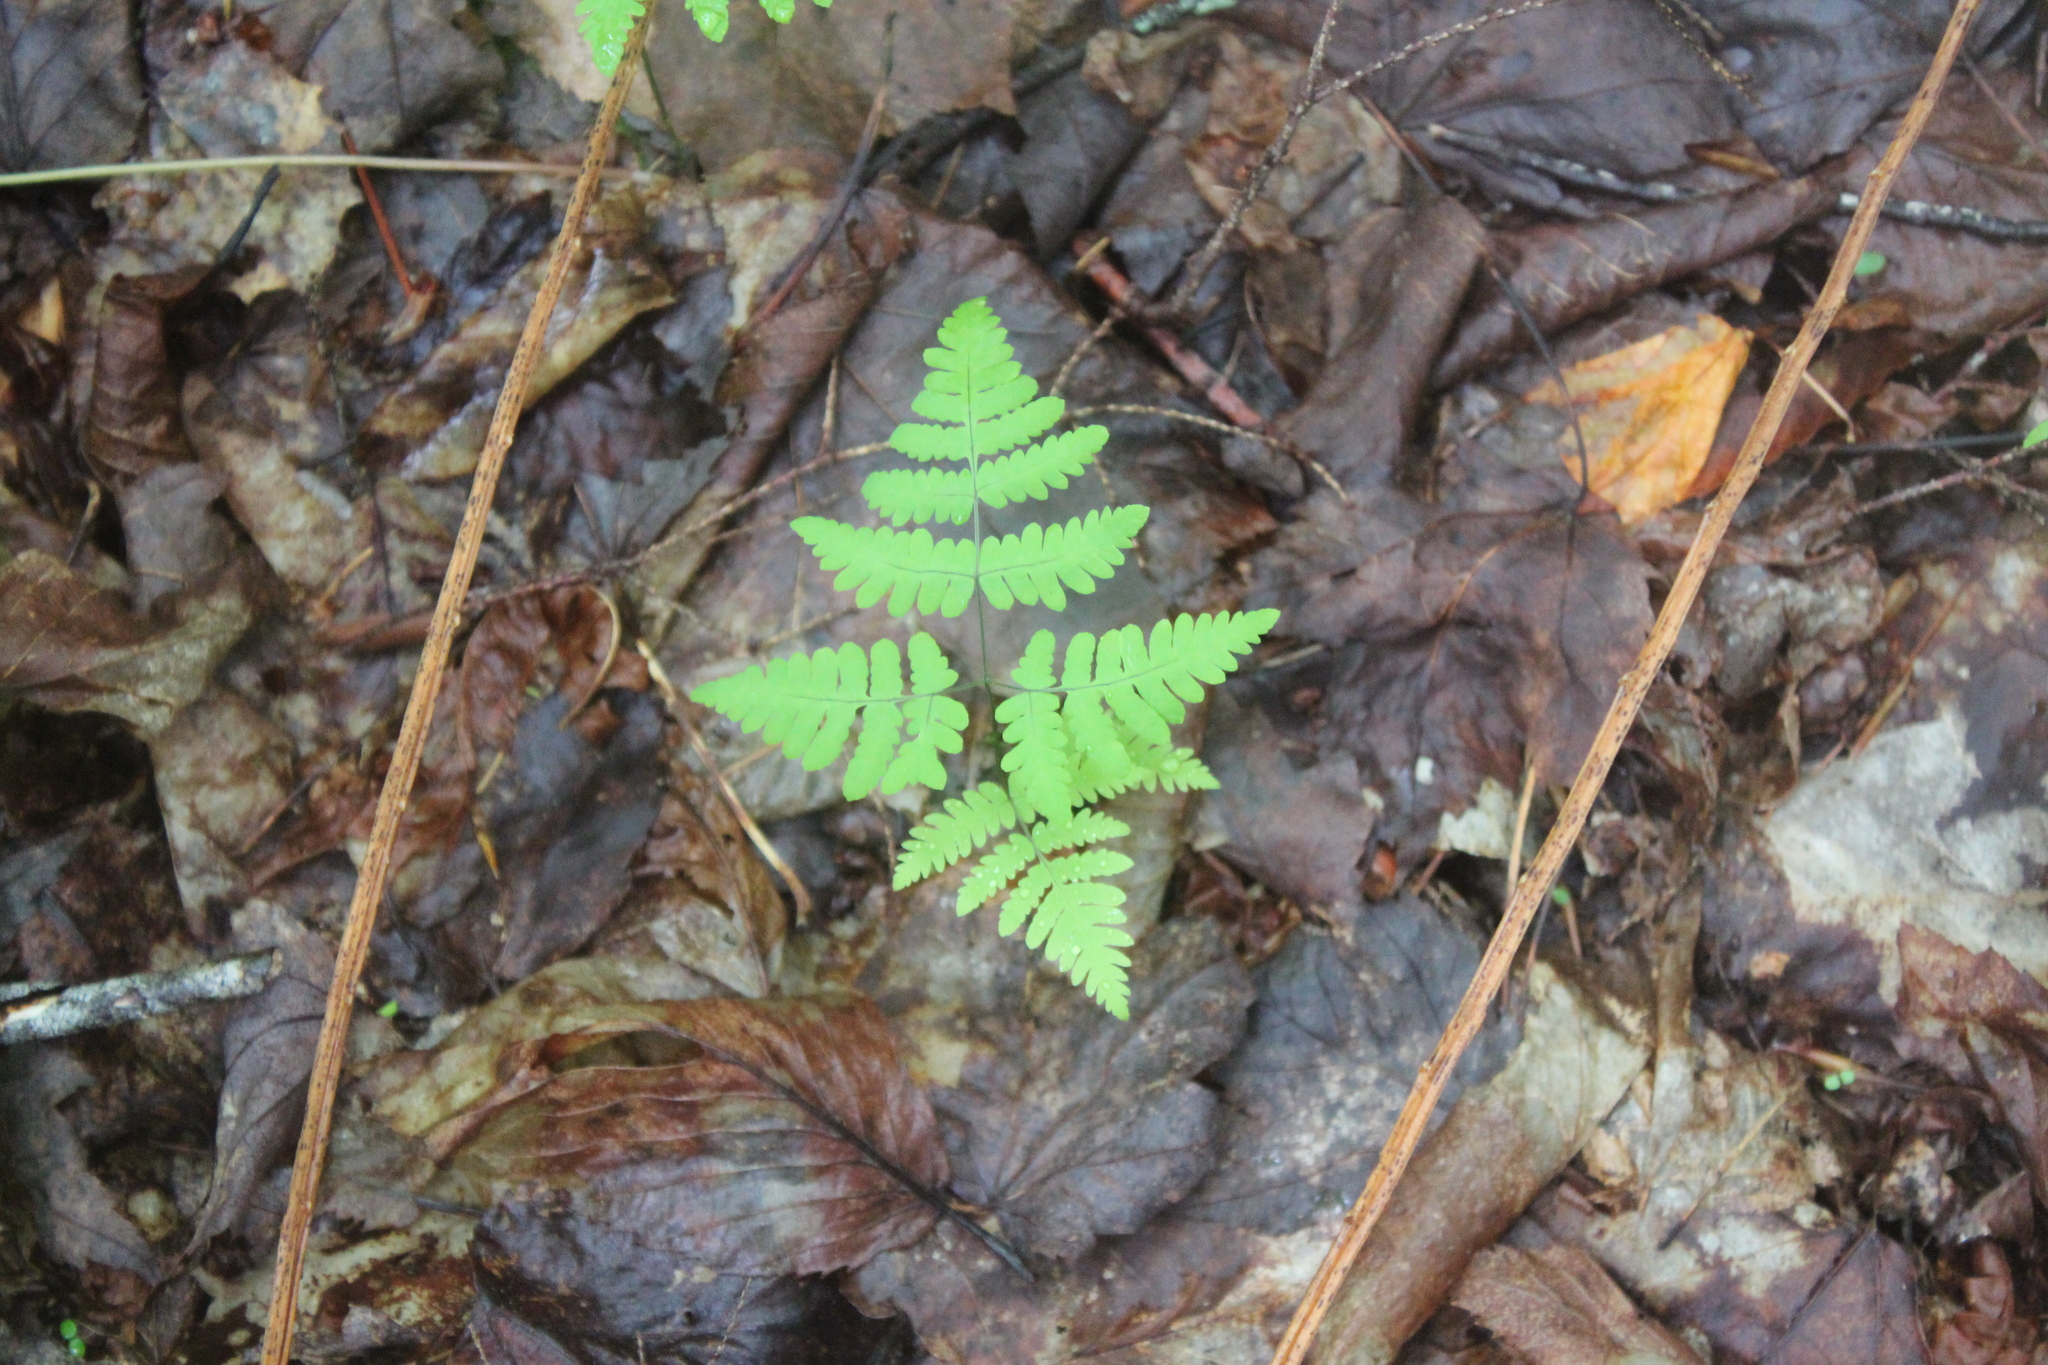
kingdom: Plantae
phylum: Tracheophyta
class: Polypodiopsida
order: Polypodiales
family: Cystopteridaceae
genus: Gymnocarpium
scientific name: Gymnocarpium dryopteris
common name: Oak fern
